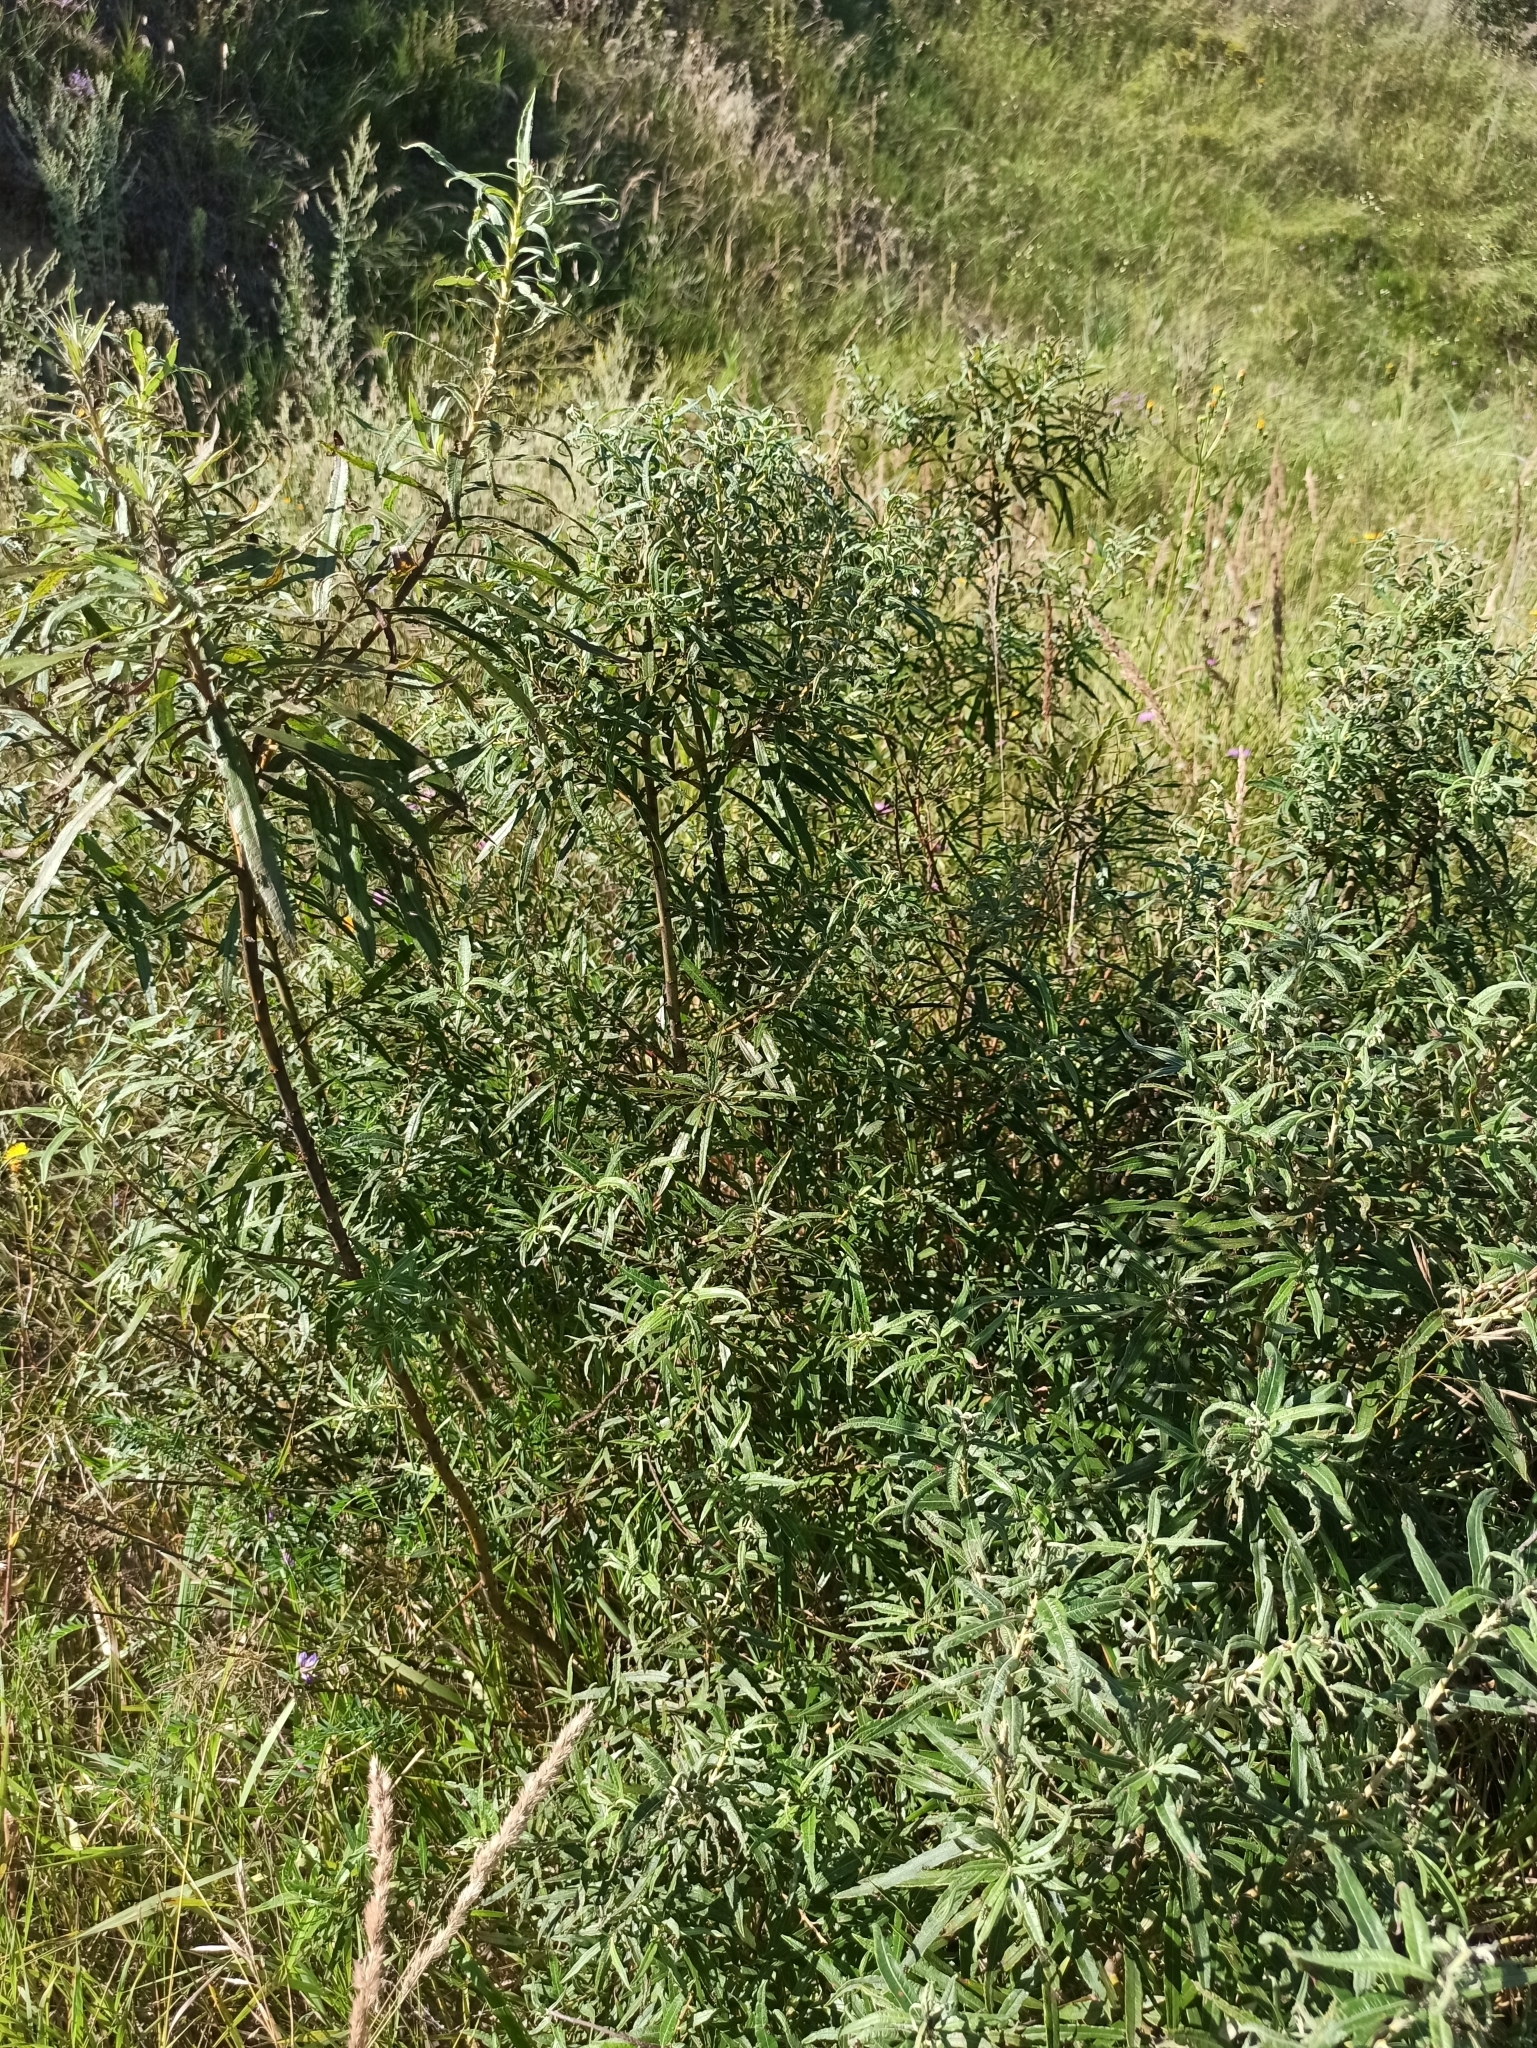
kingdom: Plantae
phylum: Tracheophyta
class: Magnoliopsida
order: Rosales
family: Elaeagnaceae
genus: Hippophae
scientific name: Hippophae rhamnoides
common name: Sea-buckthorn
